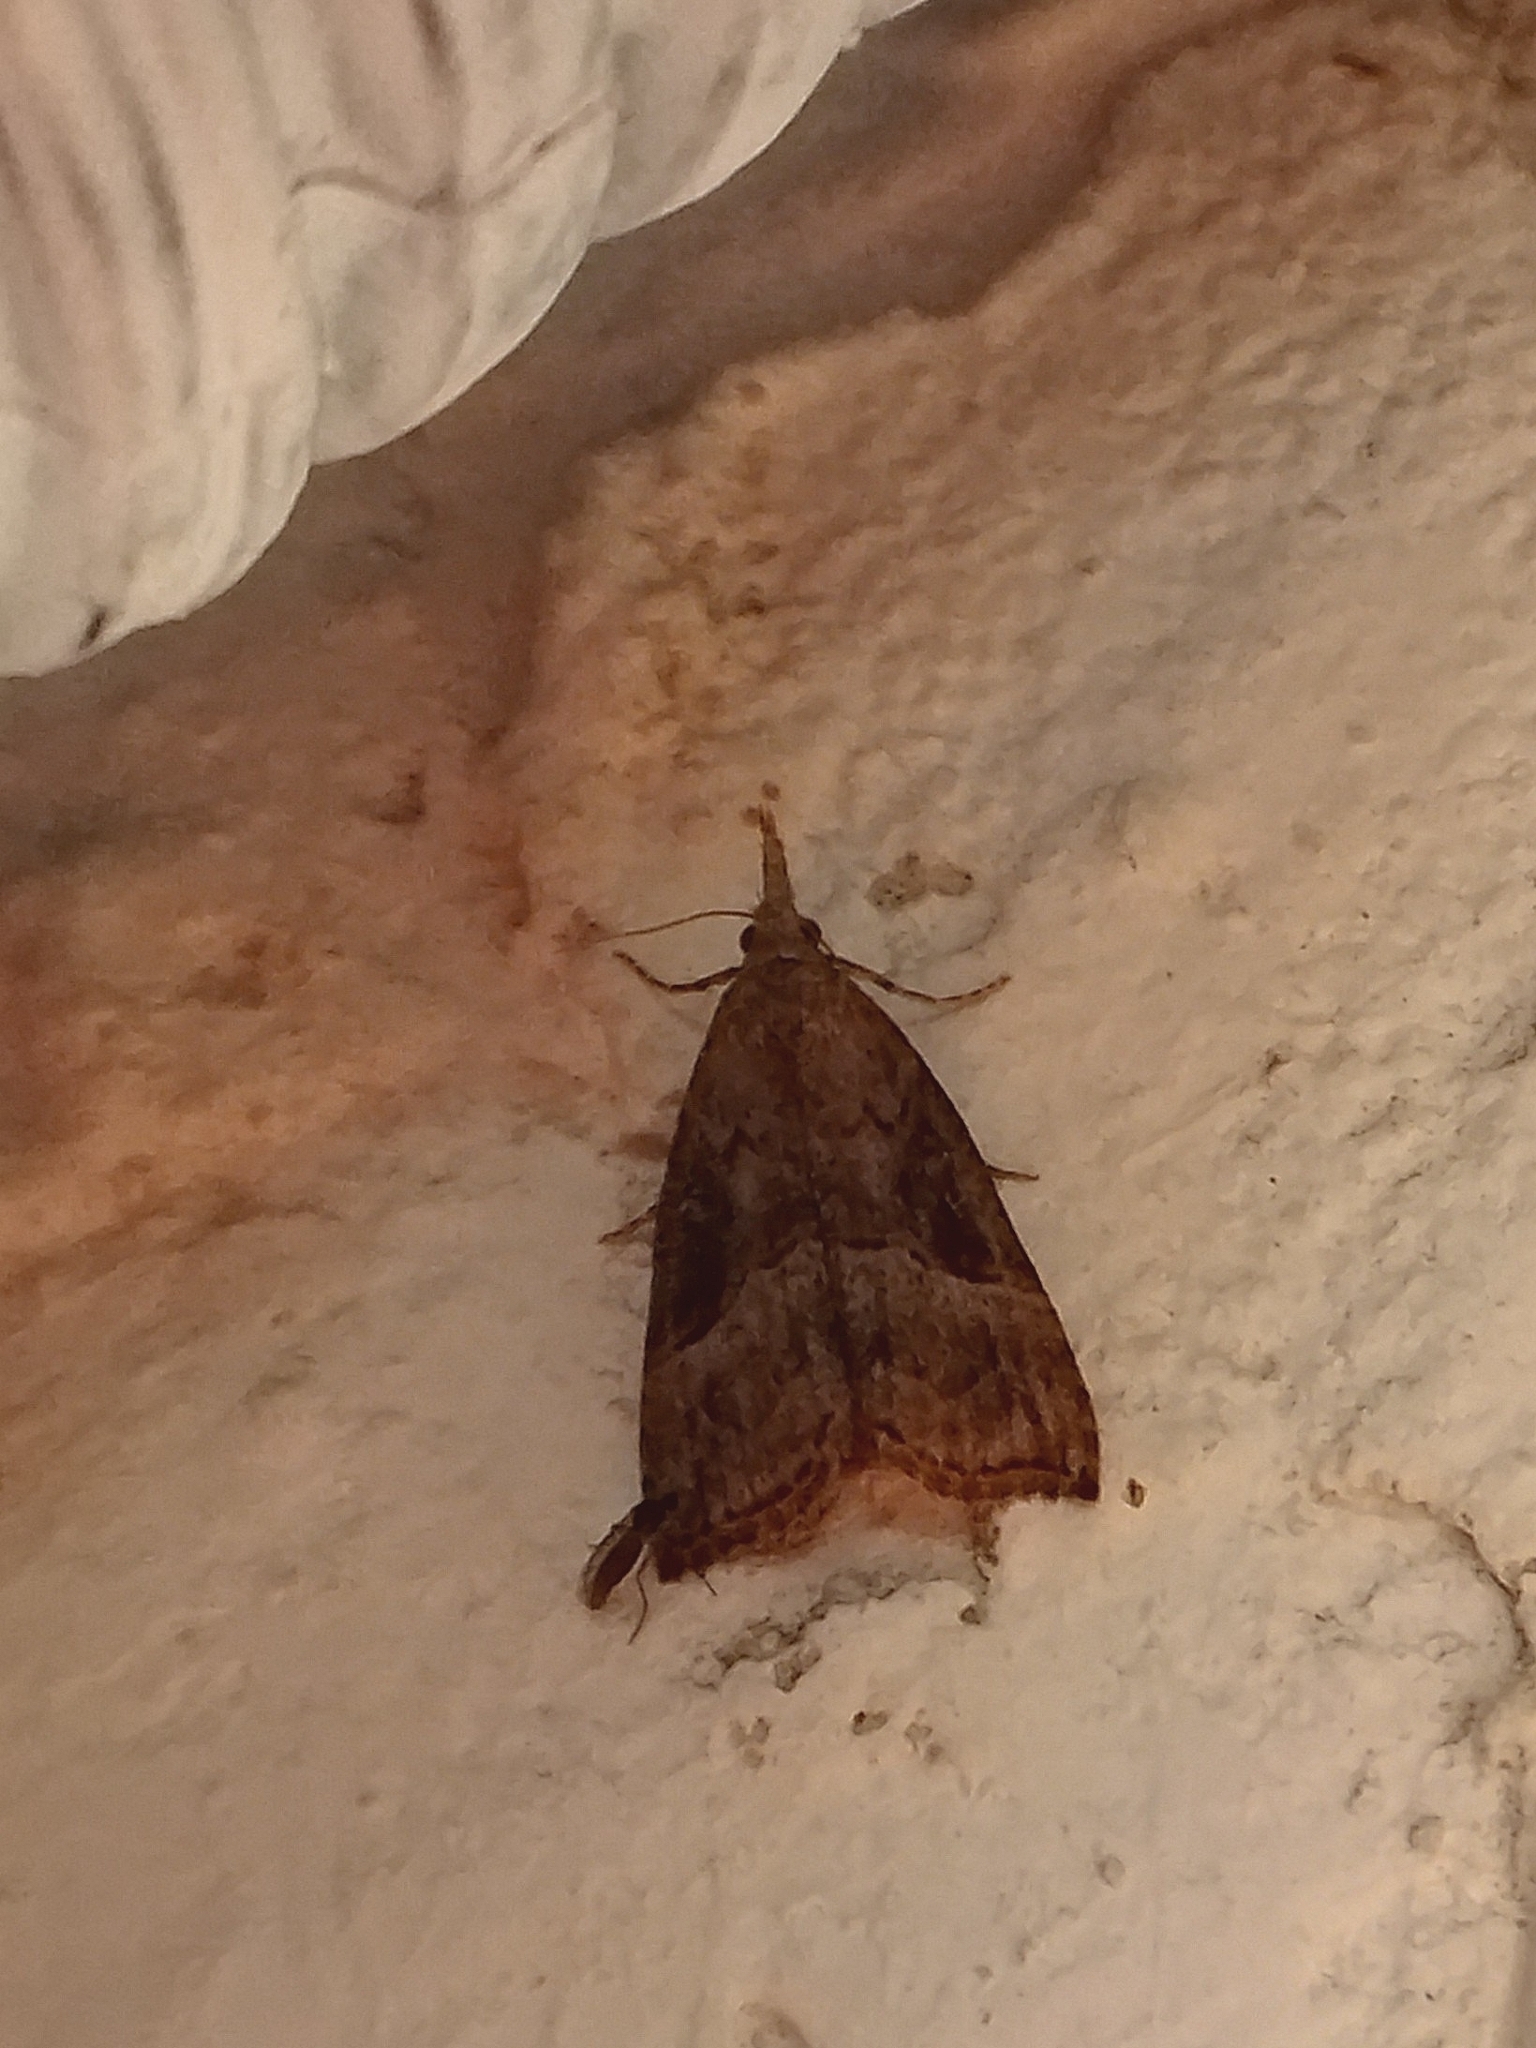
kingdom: Animalia
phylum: Arthropoda
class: Insecta
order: Lepidoptera
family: Erebidae
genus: Hypena
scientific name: Hypena rostralis
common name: Buttoned snout
